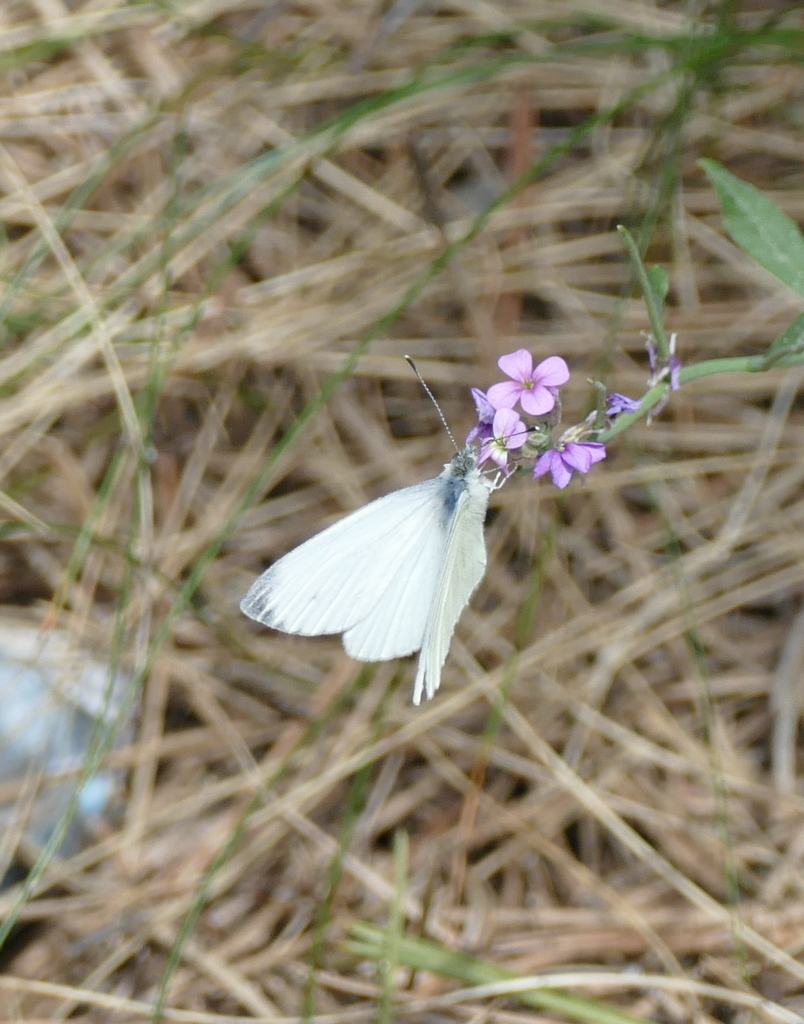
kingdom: Animalia
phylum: Arthropoda
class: Insecta
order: Lepidoptera
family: Pieridae
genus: Pieris
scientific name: Pieris napi
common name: Green-veined white
